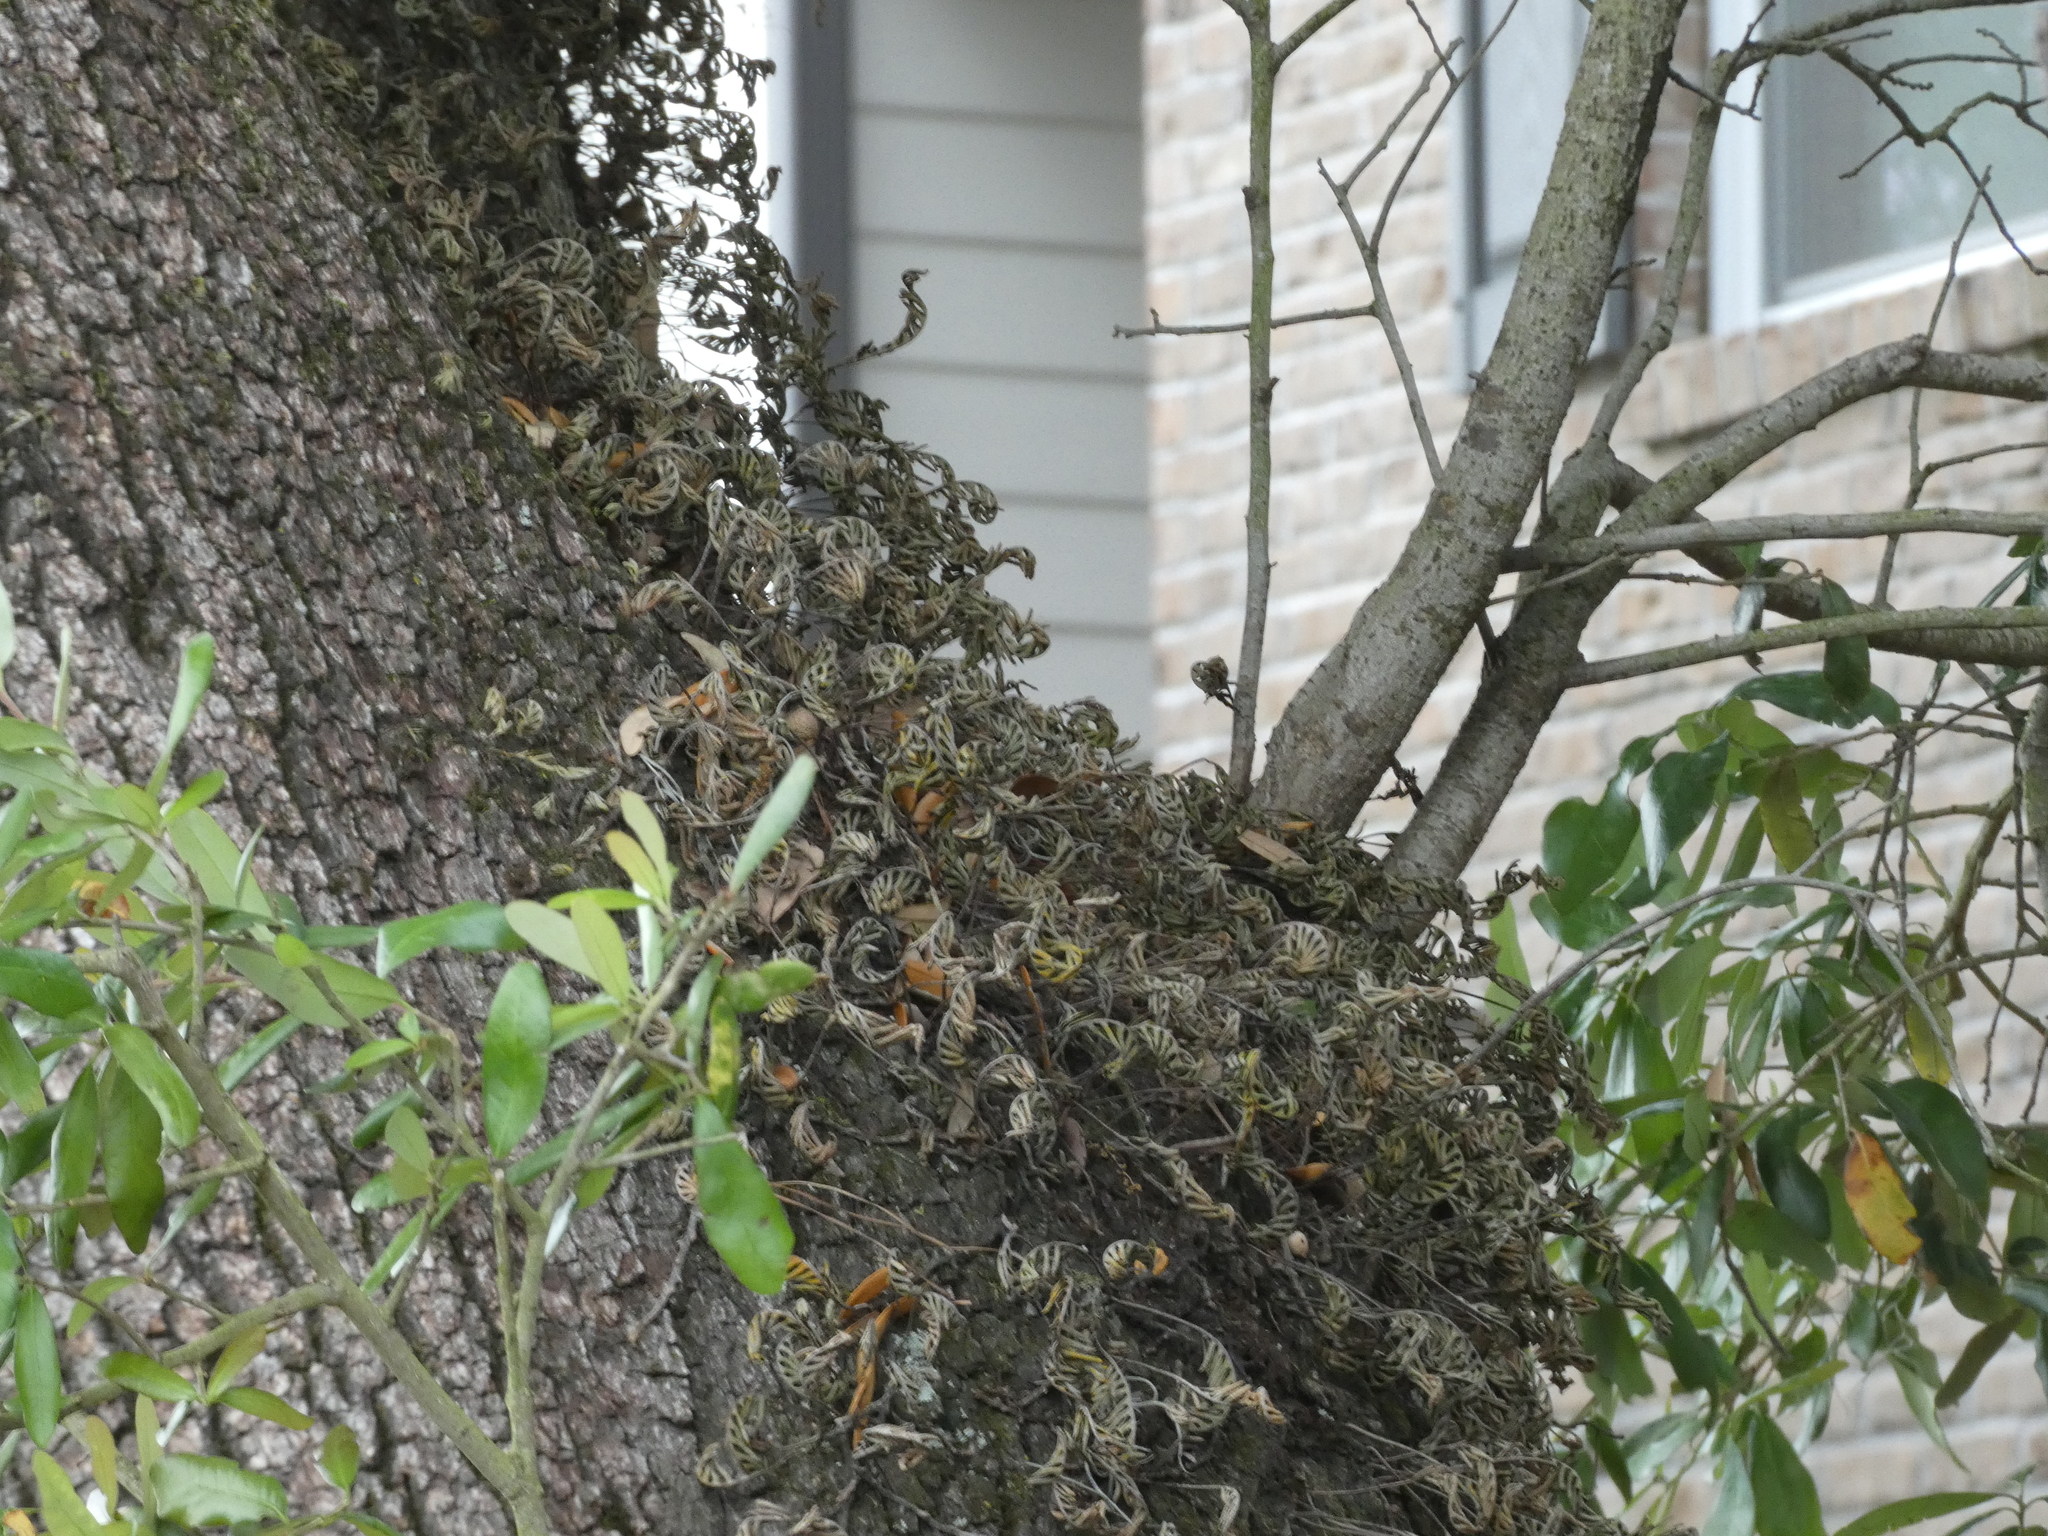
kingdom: Plantae
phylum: Tracheophyta
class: Polypodiopsida
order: Polypodiales
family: Polypodiaceae
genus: Pleopeltis
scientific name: Pleopeltis michauxiana
